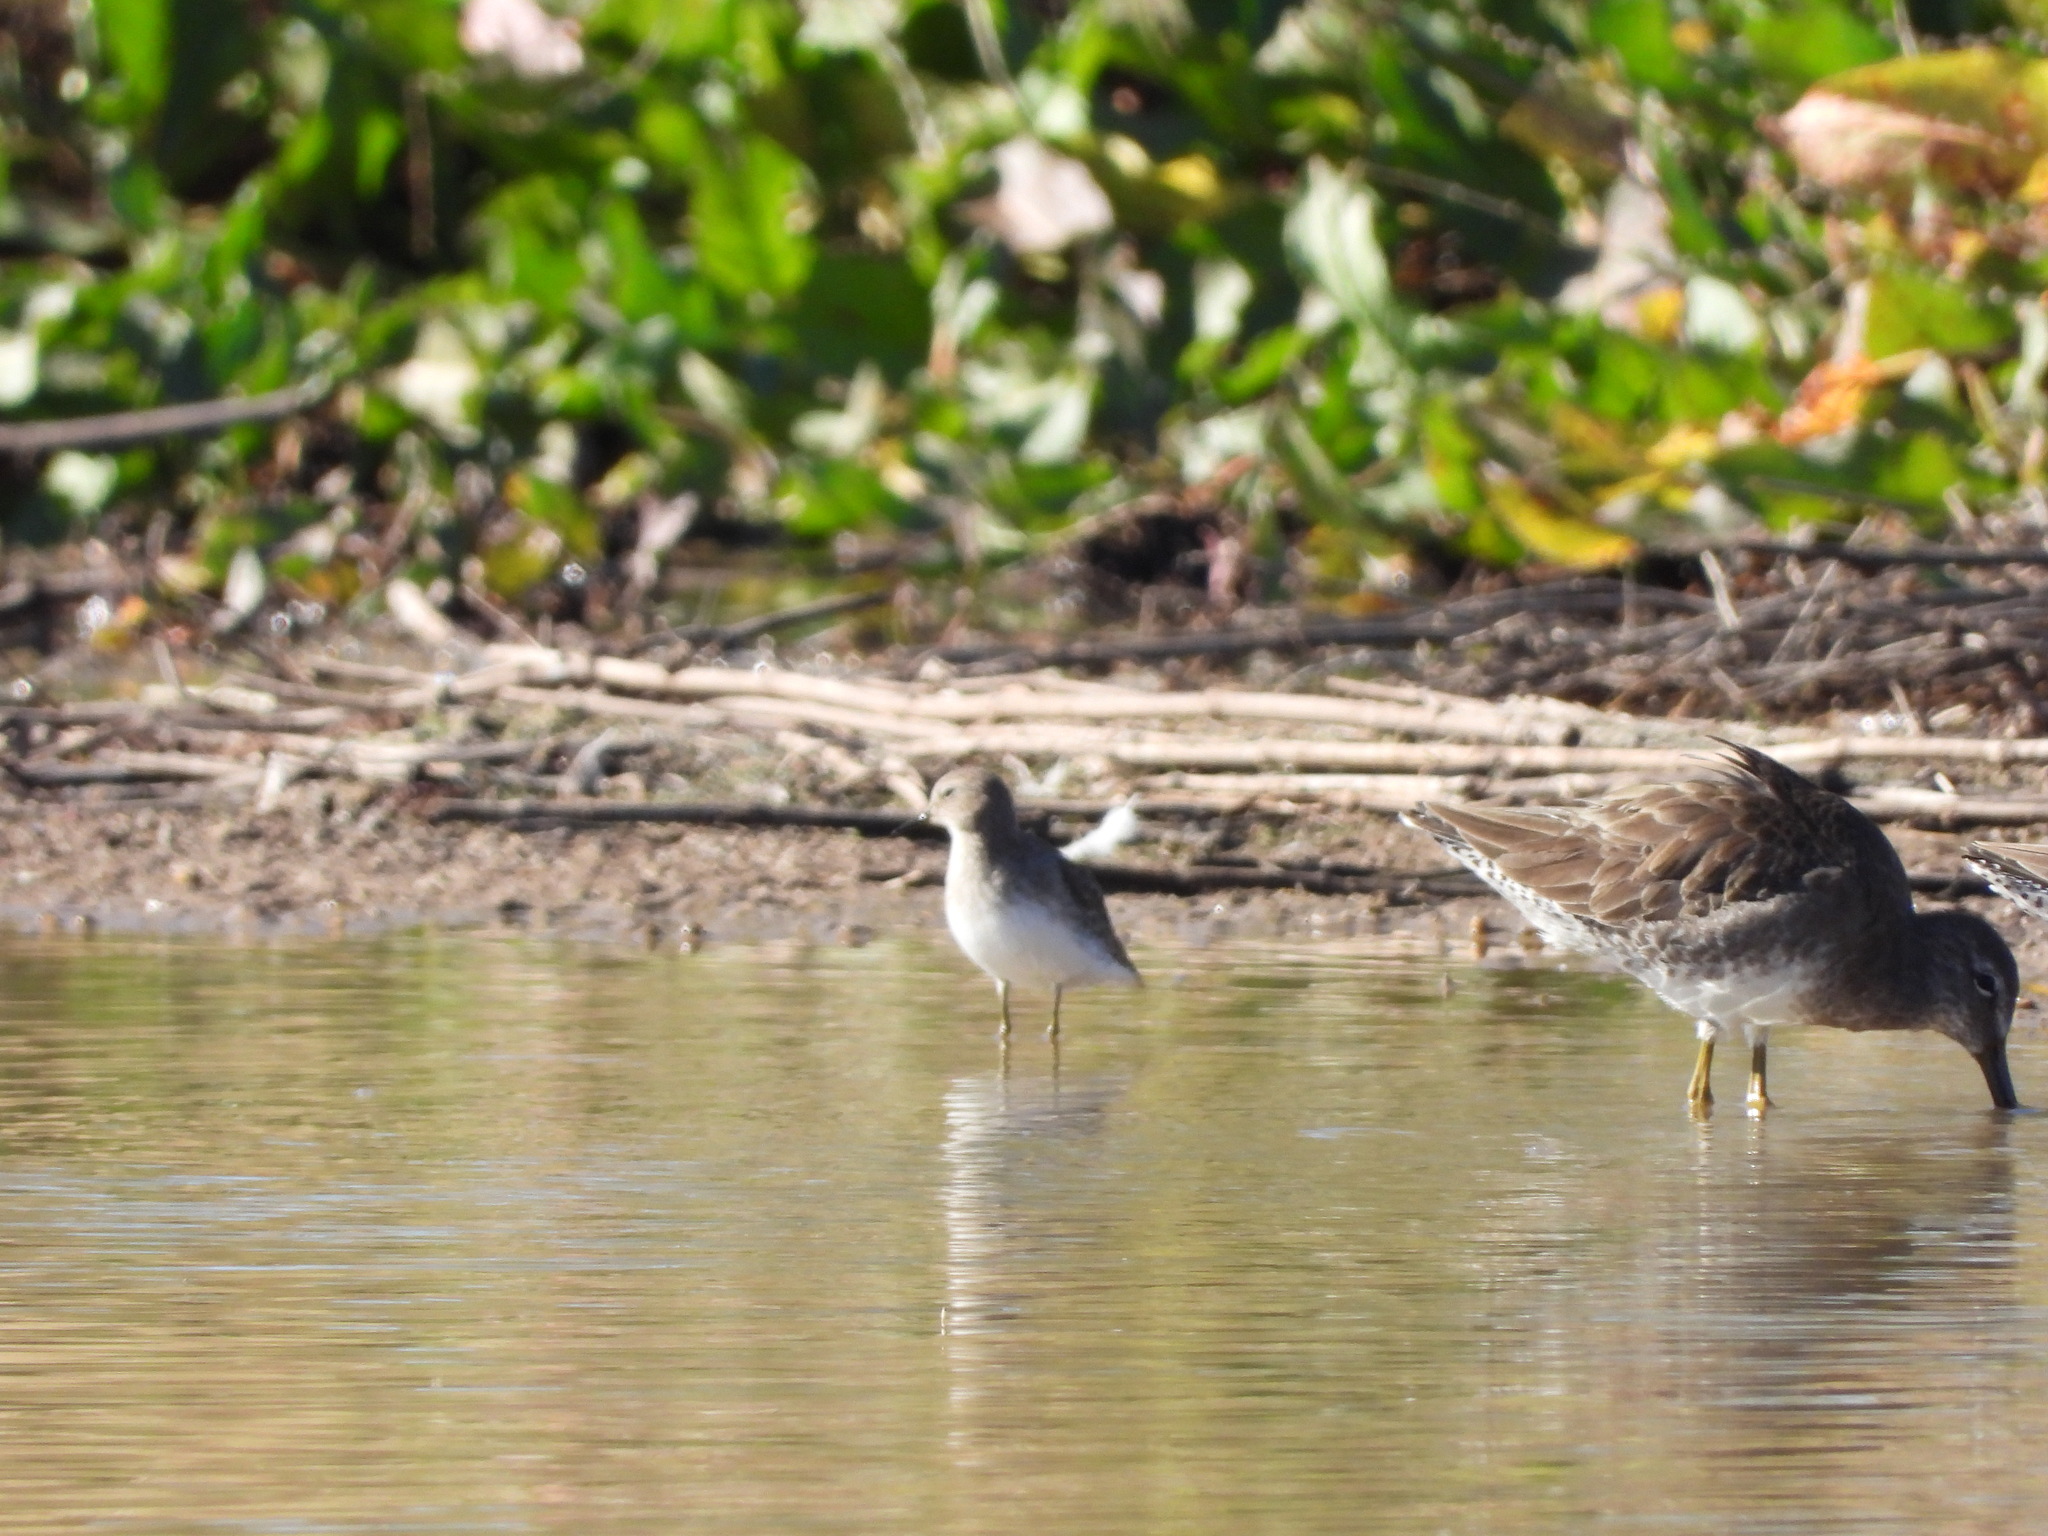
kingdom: Animalia
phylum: Chordata
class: Aves
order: Charadriiformes
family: Scolopacidae
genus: Calidris
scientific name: Calidris minutilla
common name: Least sandpiper
